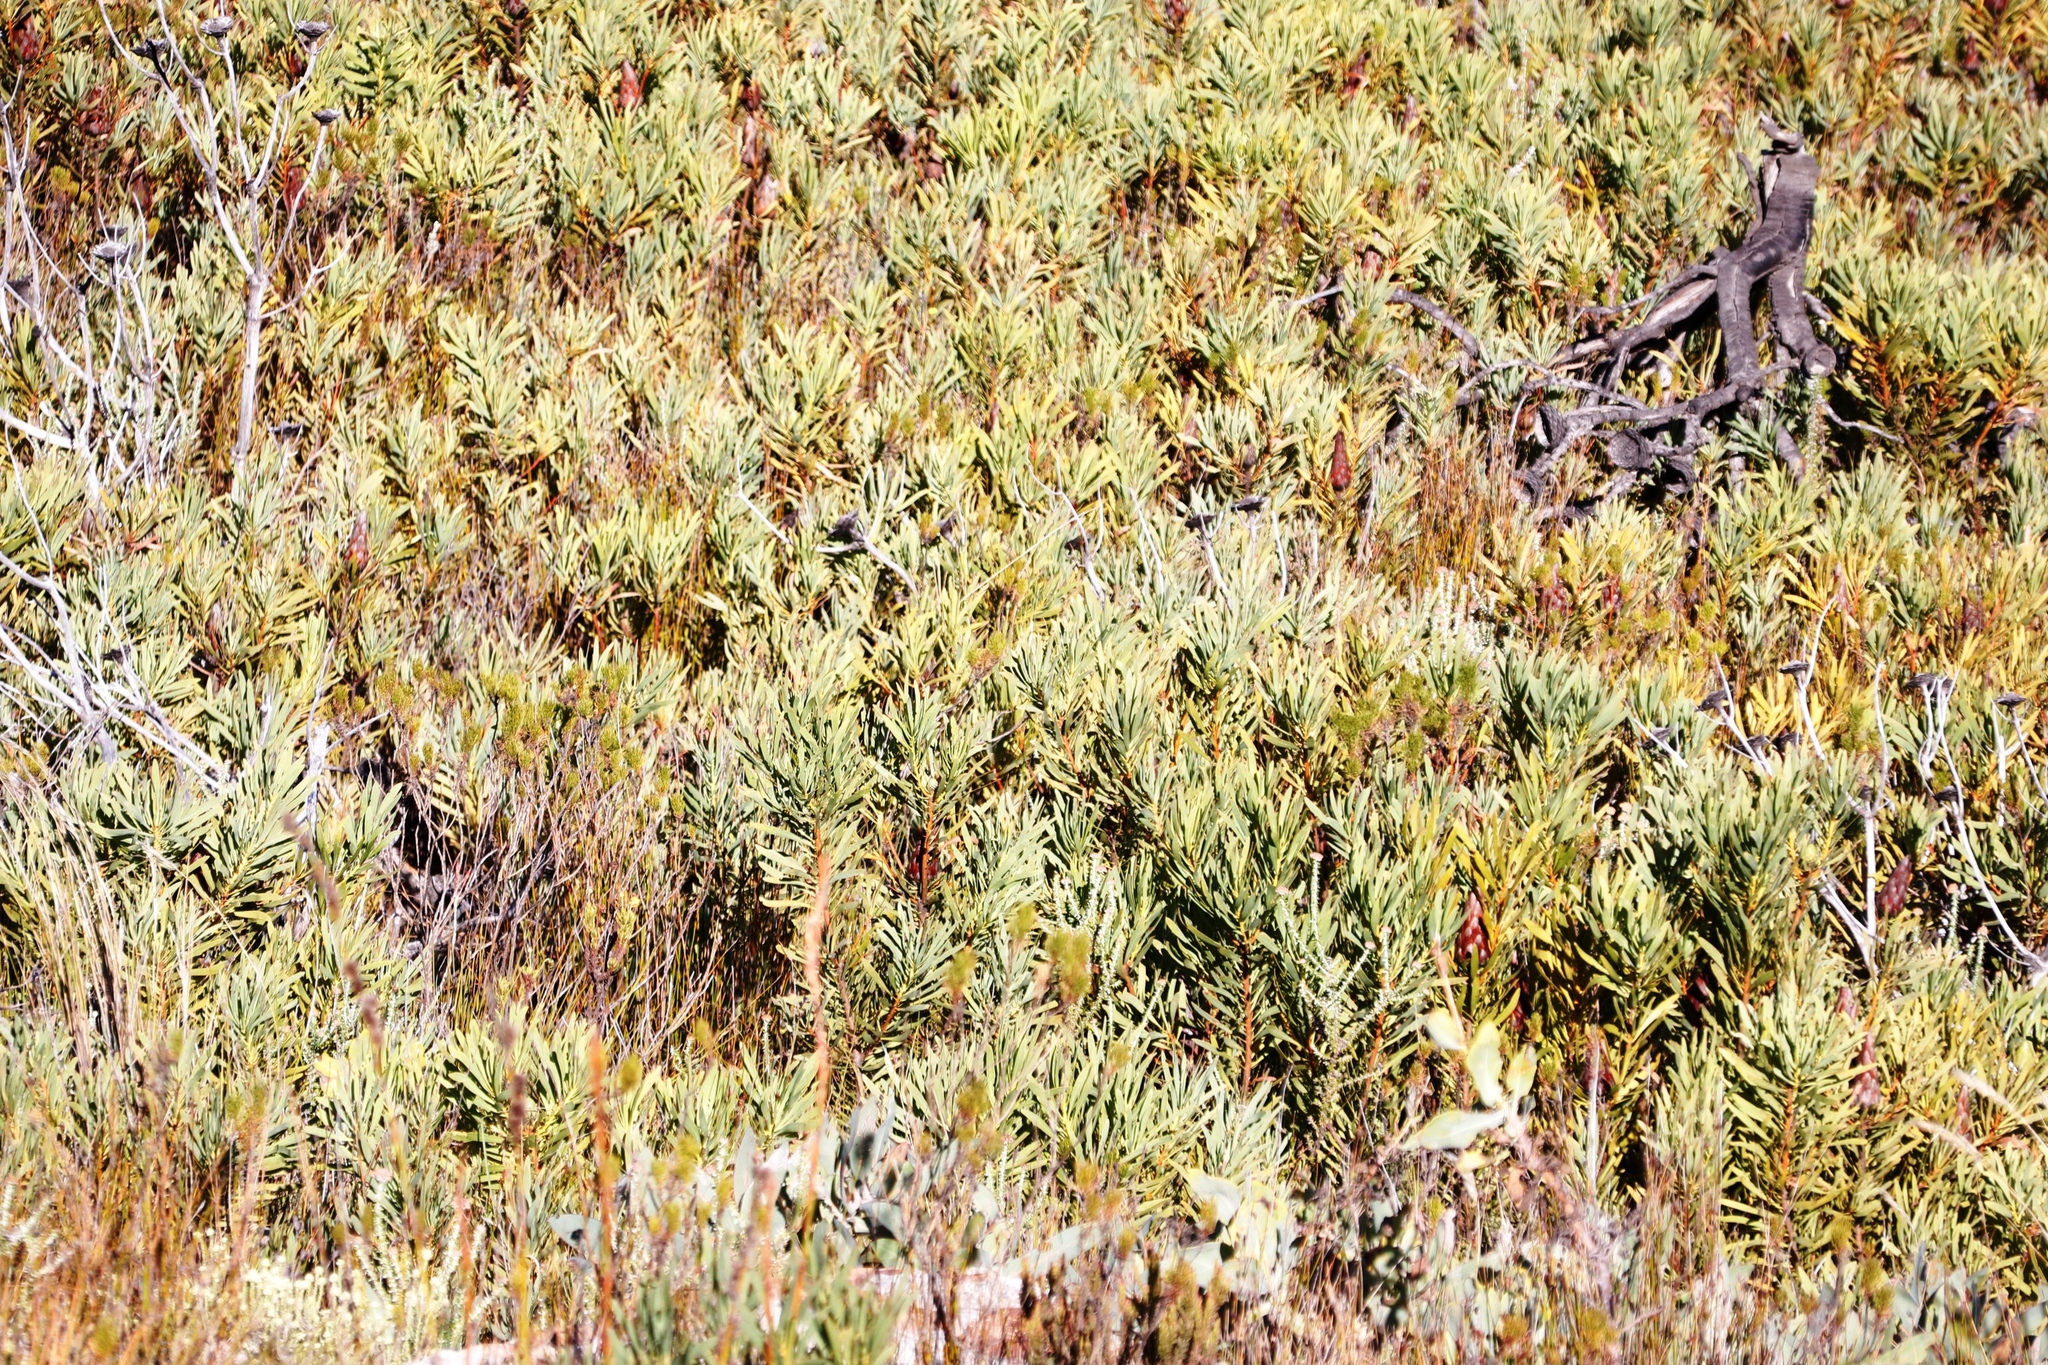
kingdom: Plantae
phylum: Tracheophyta
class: Magnoliopsida
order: Proteales
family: Proteaceae
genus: Protea
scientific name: Protea repens
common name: Sugarbush
